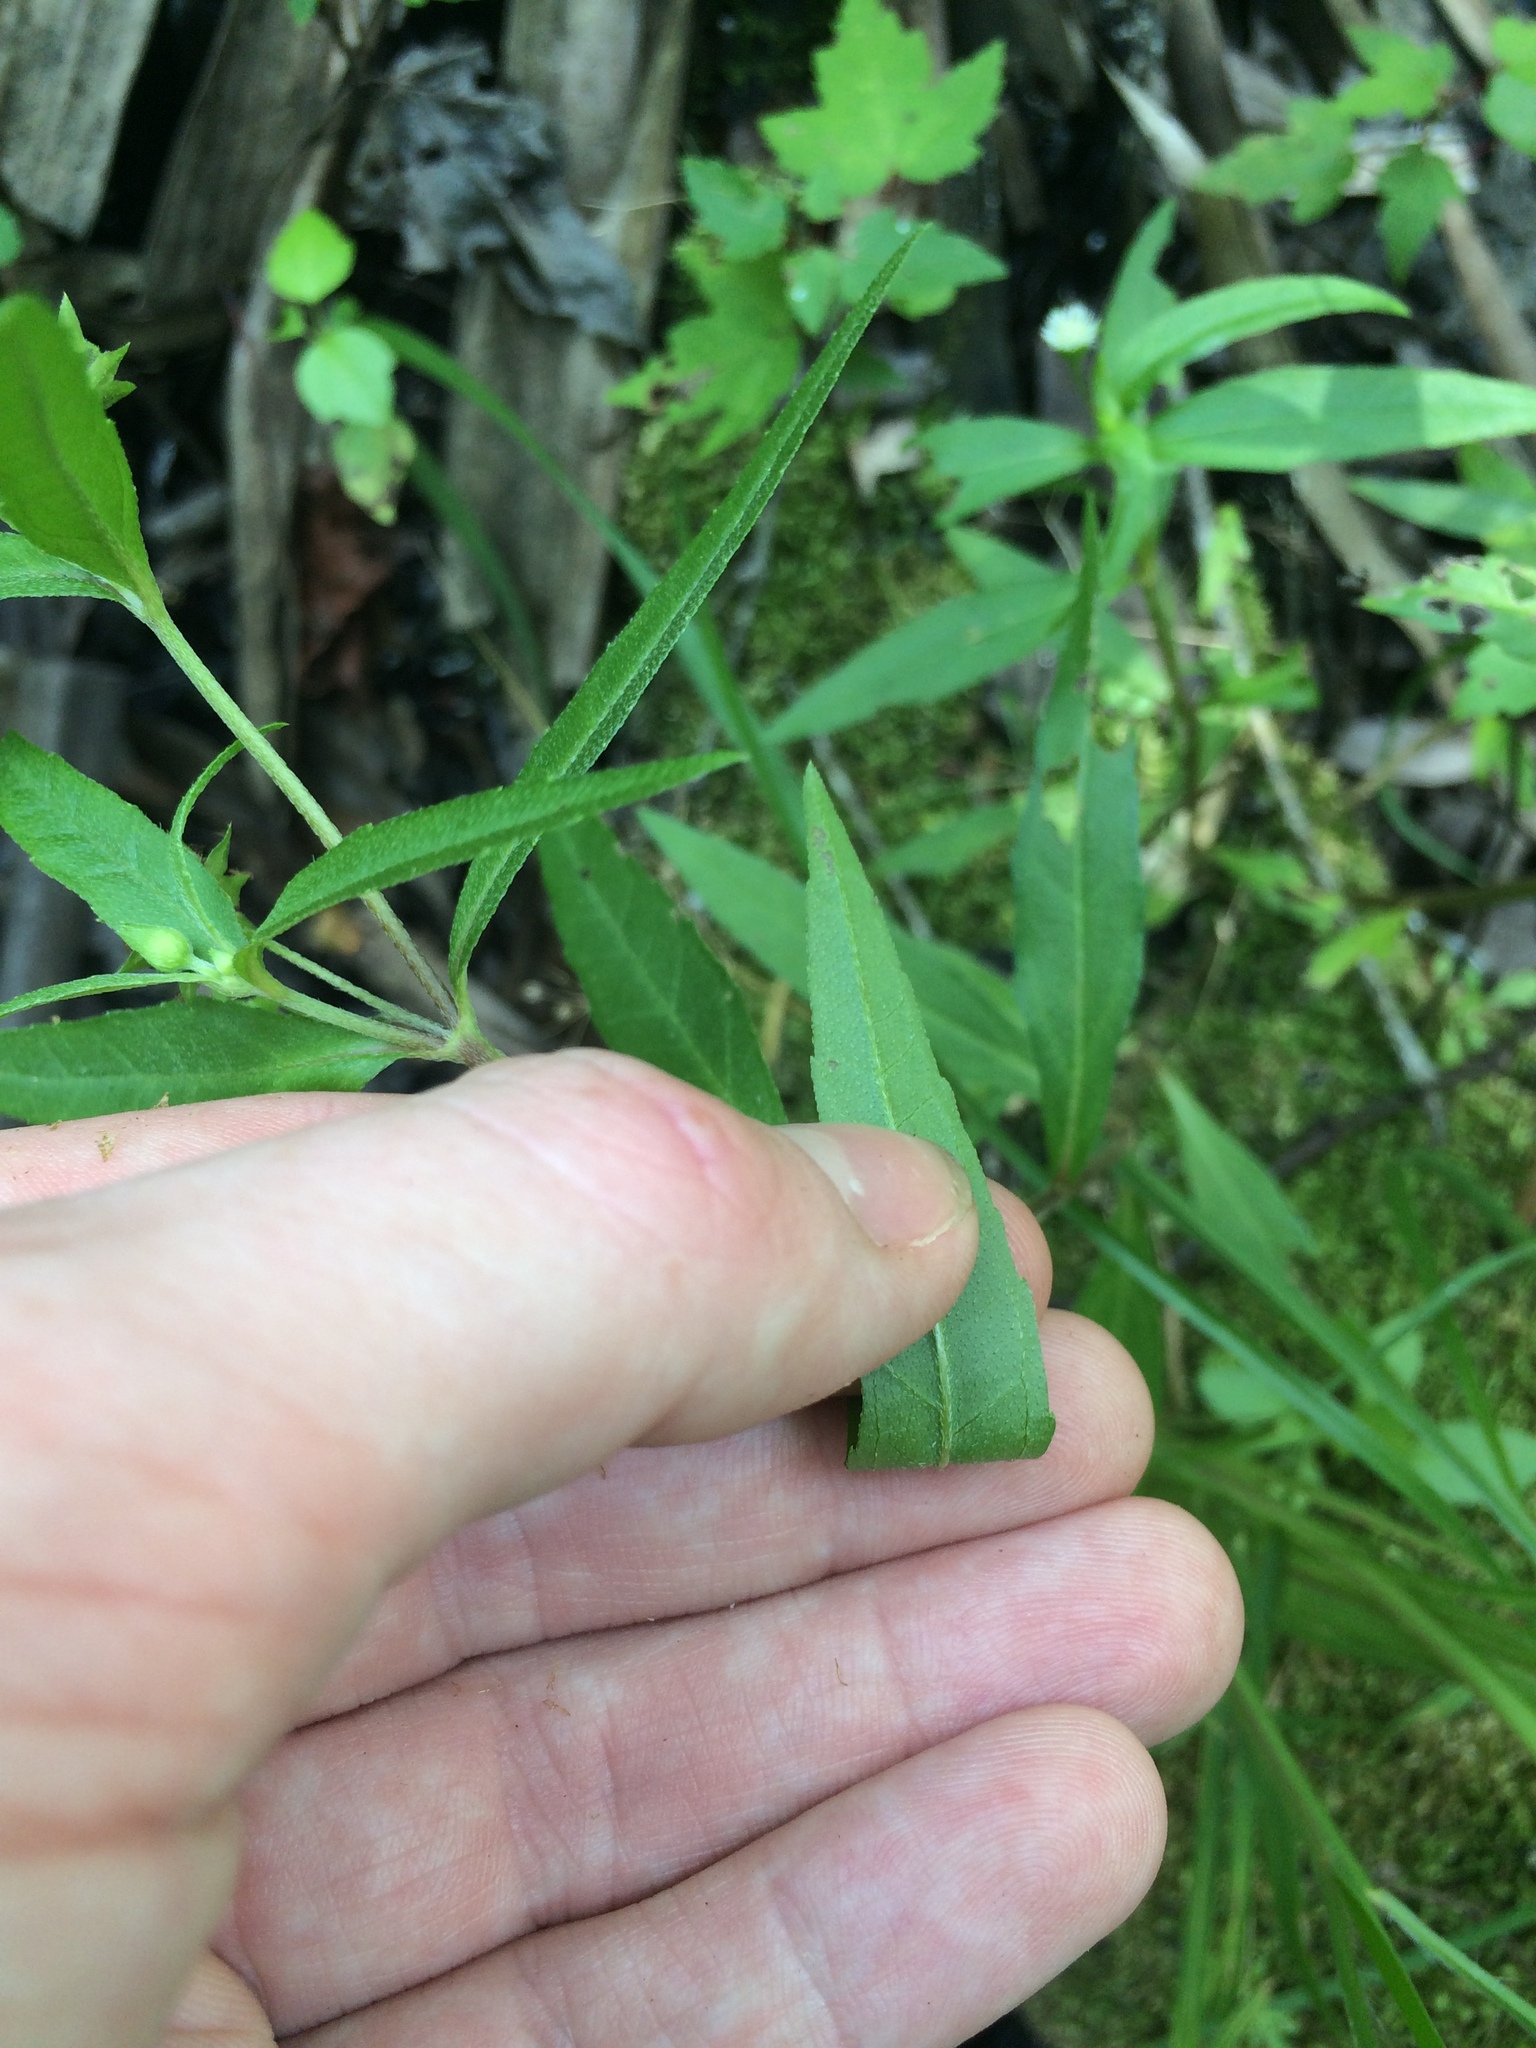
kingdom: Plantae
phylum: Tracheophyta
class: Magnoliopsida
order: Asterales
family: Asteraceae
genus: Eclipta
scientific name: Eclipta prostrata
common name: False daisy
